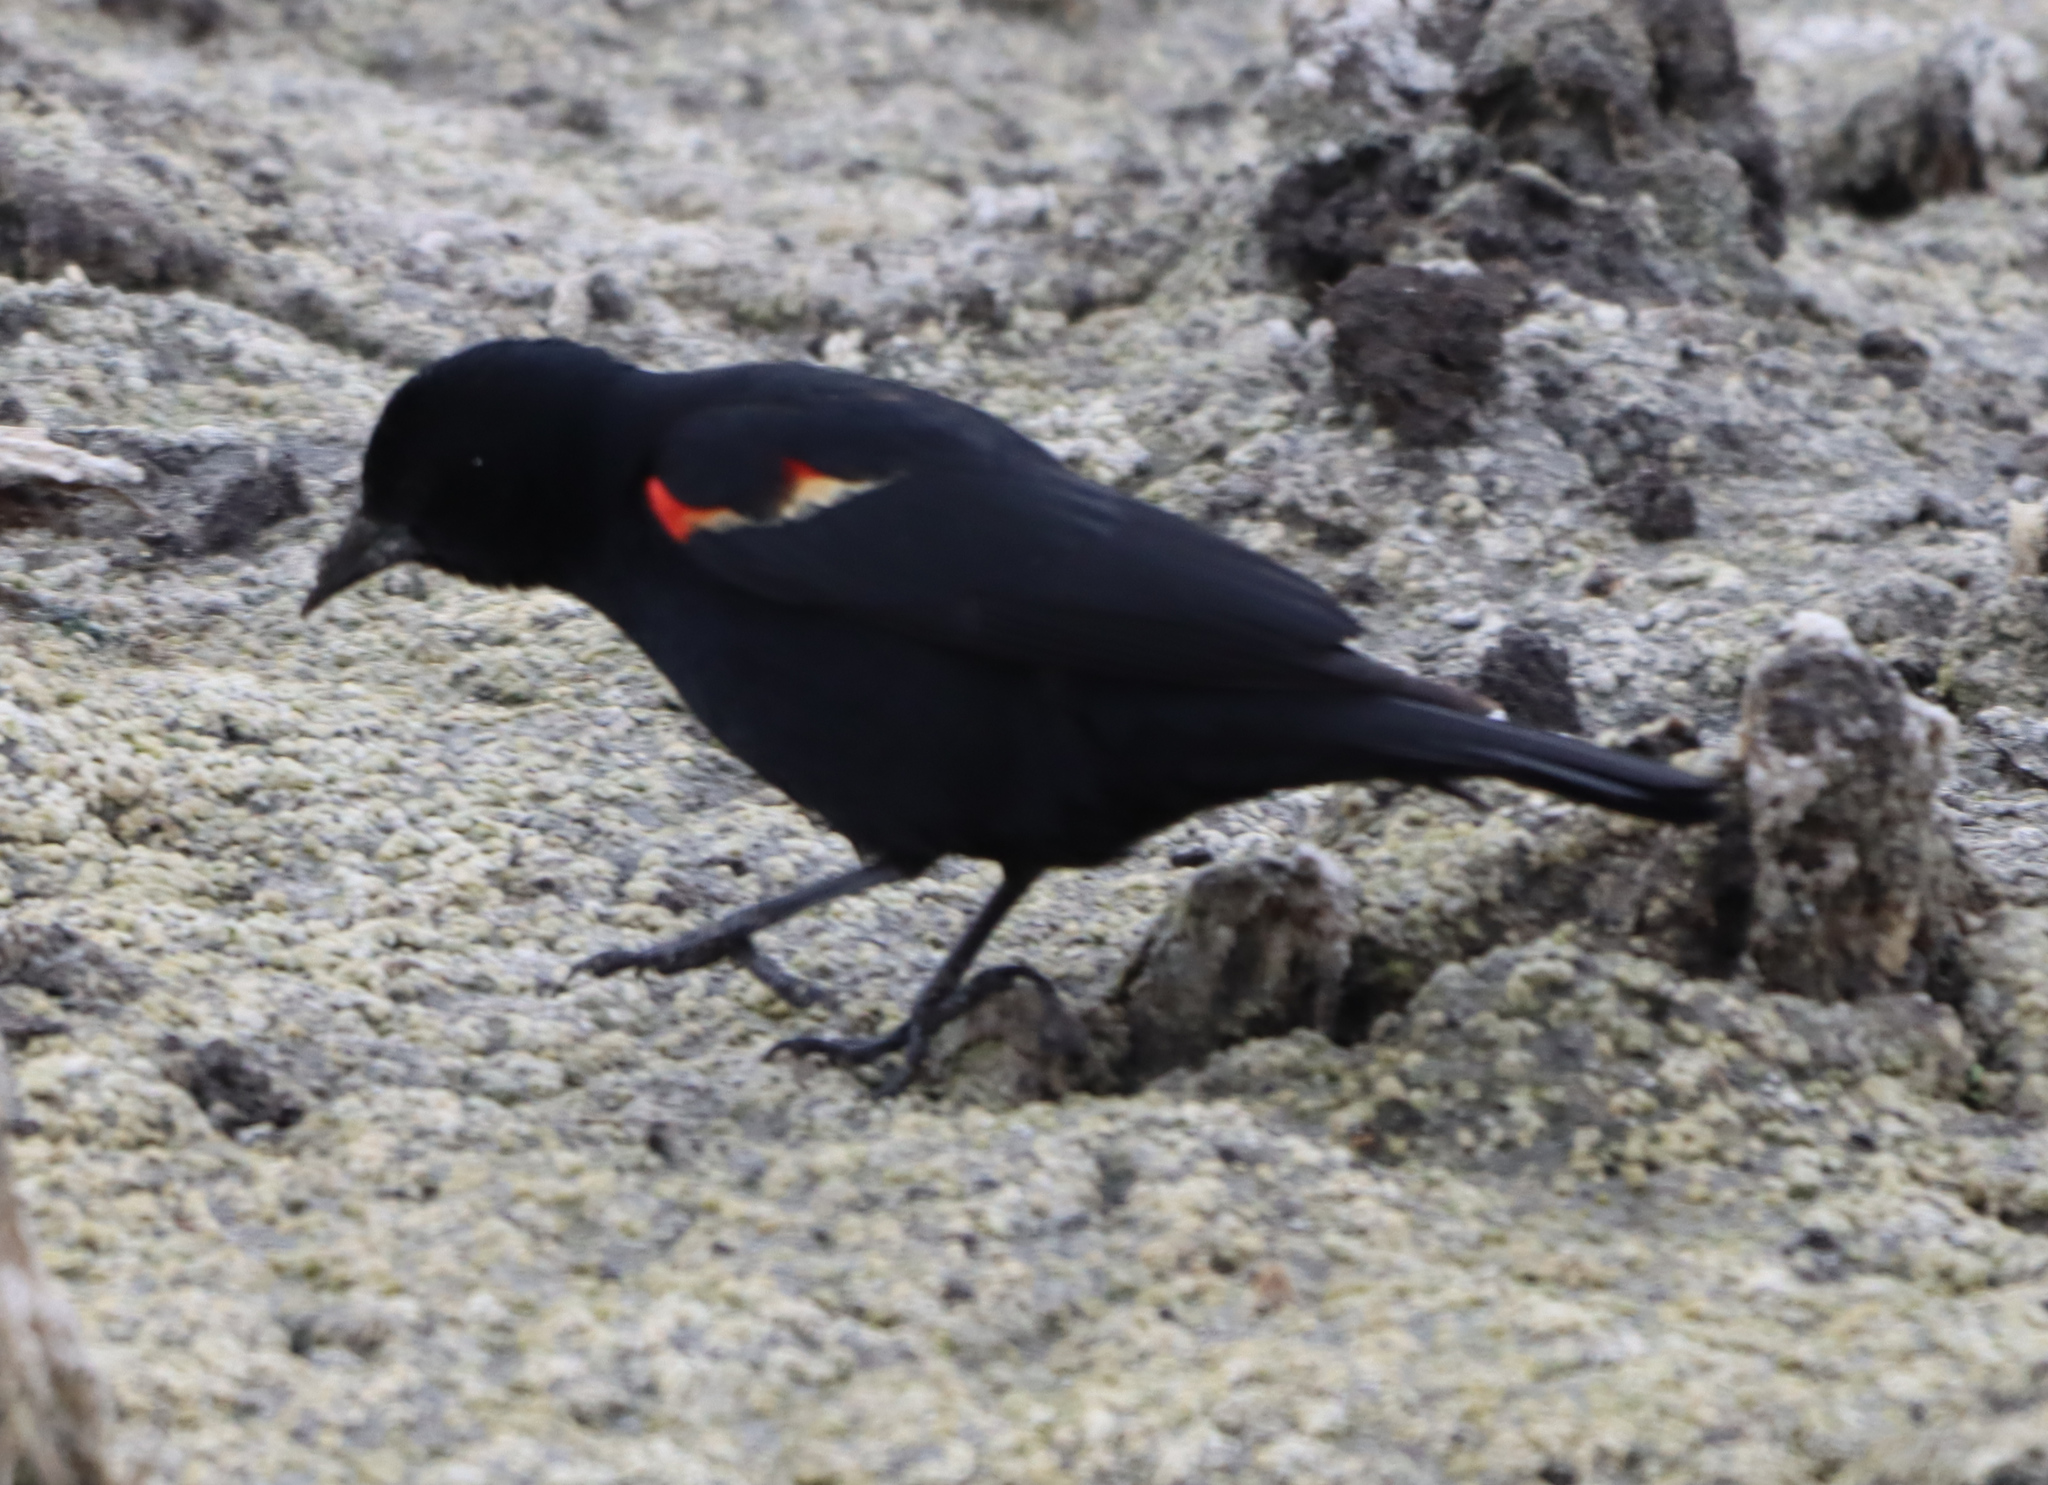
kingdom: Animalia
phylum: Chordata
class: Aves
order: Passeriformes
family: Icteridae
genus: Agelaius
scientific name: Agelaius phoeniceus
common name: Red-winged blackbird
